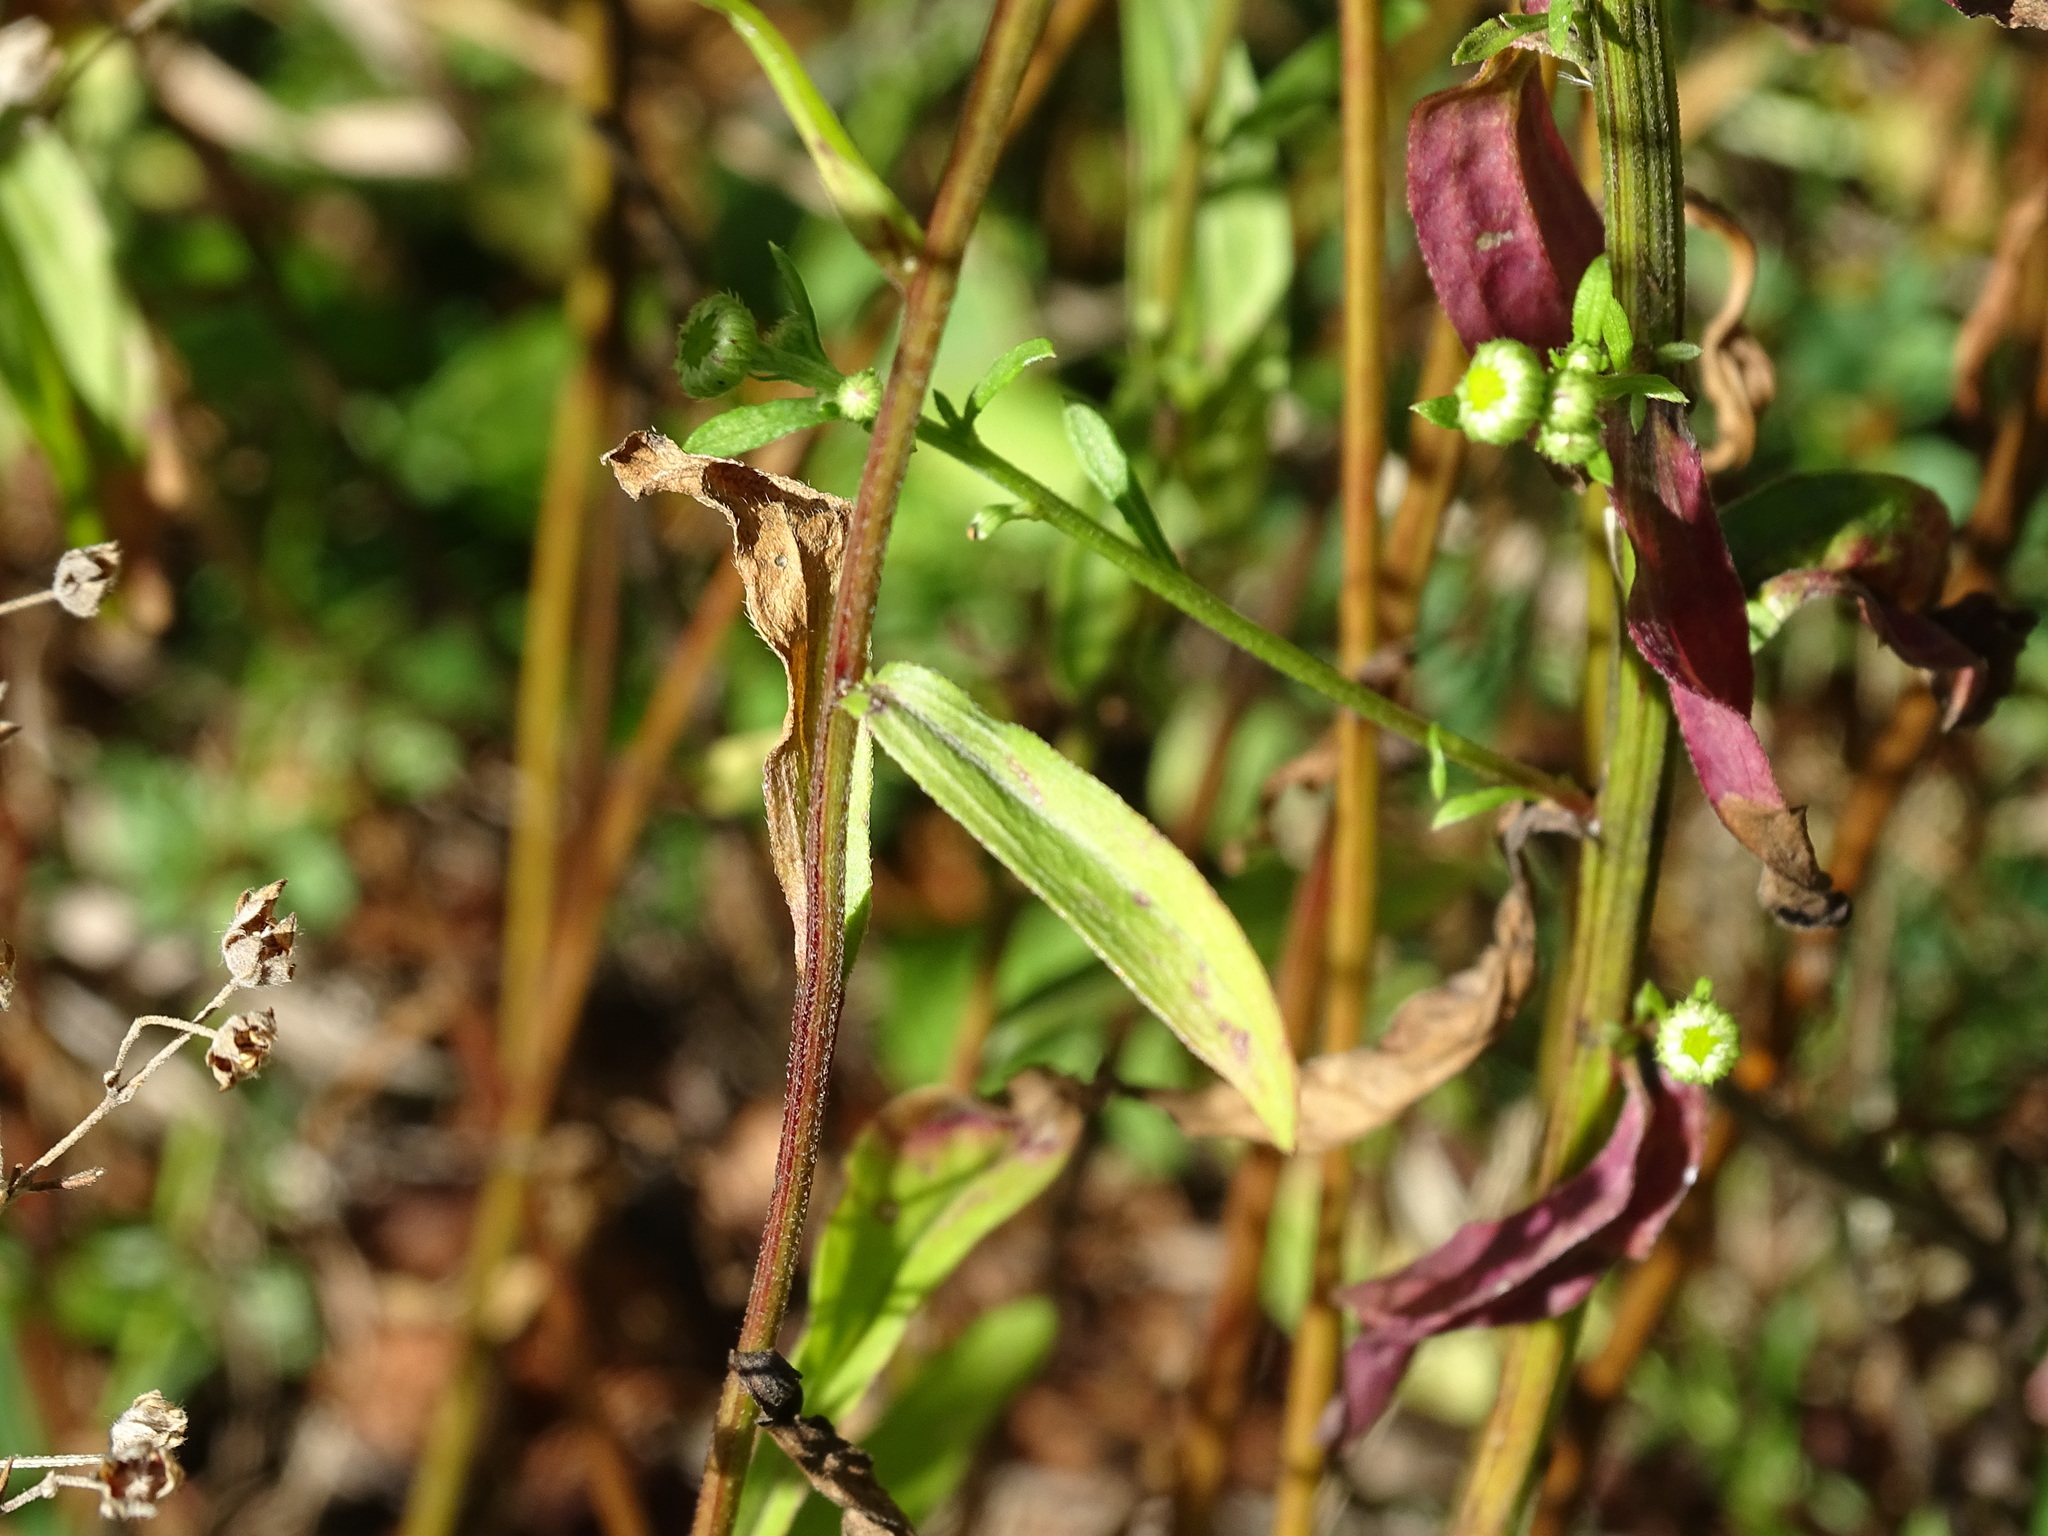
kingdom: Plantae
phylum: Tracheophyta
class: Magnoliopsida
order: Asterales
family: Asteraceae
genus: Erigeron
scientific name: Erigeron strigosus
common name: Common eastern fleabane
